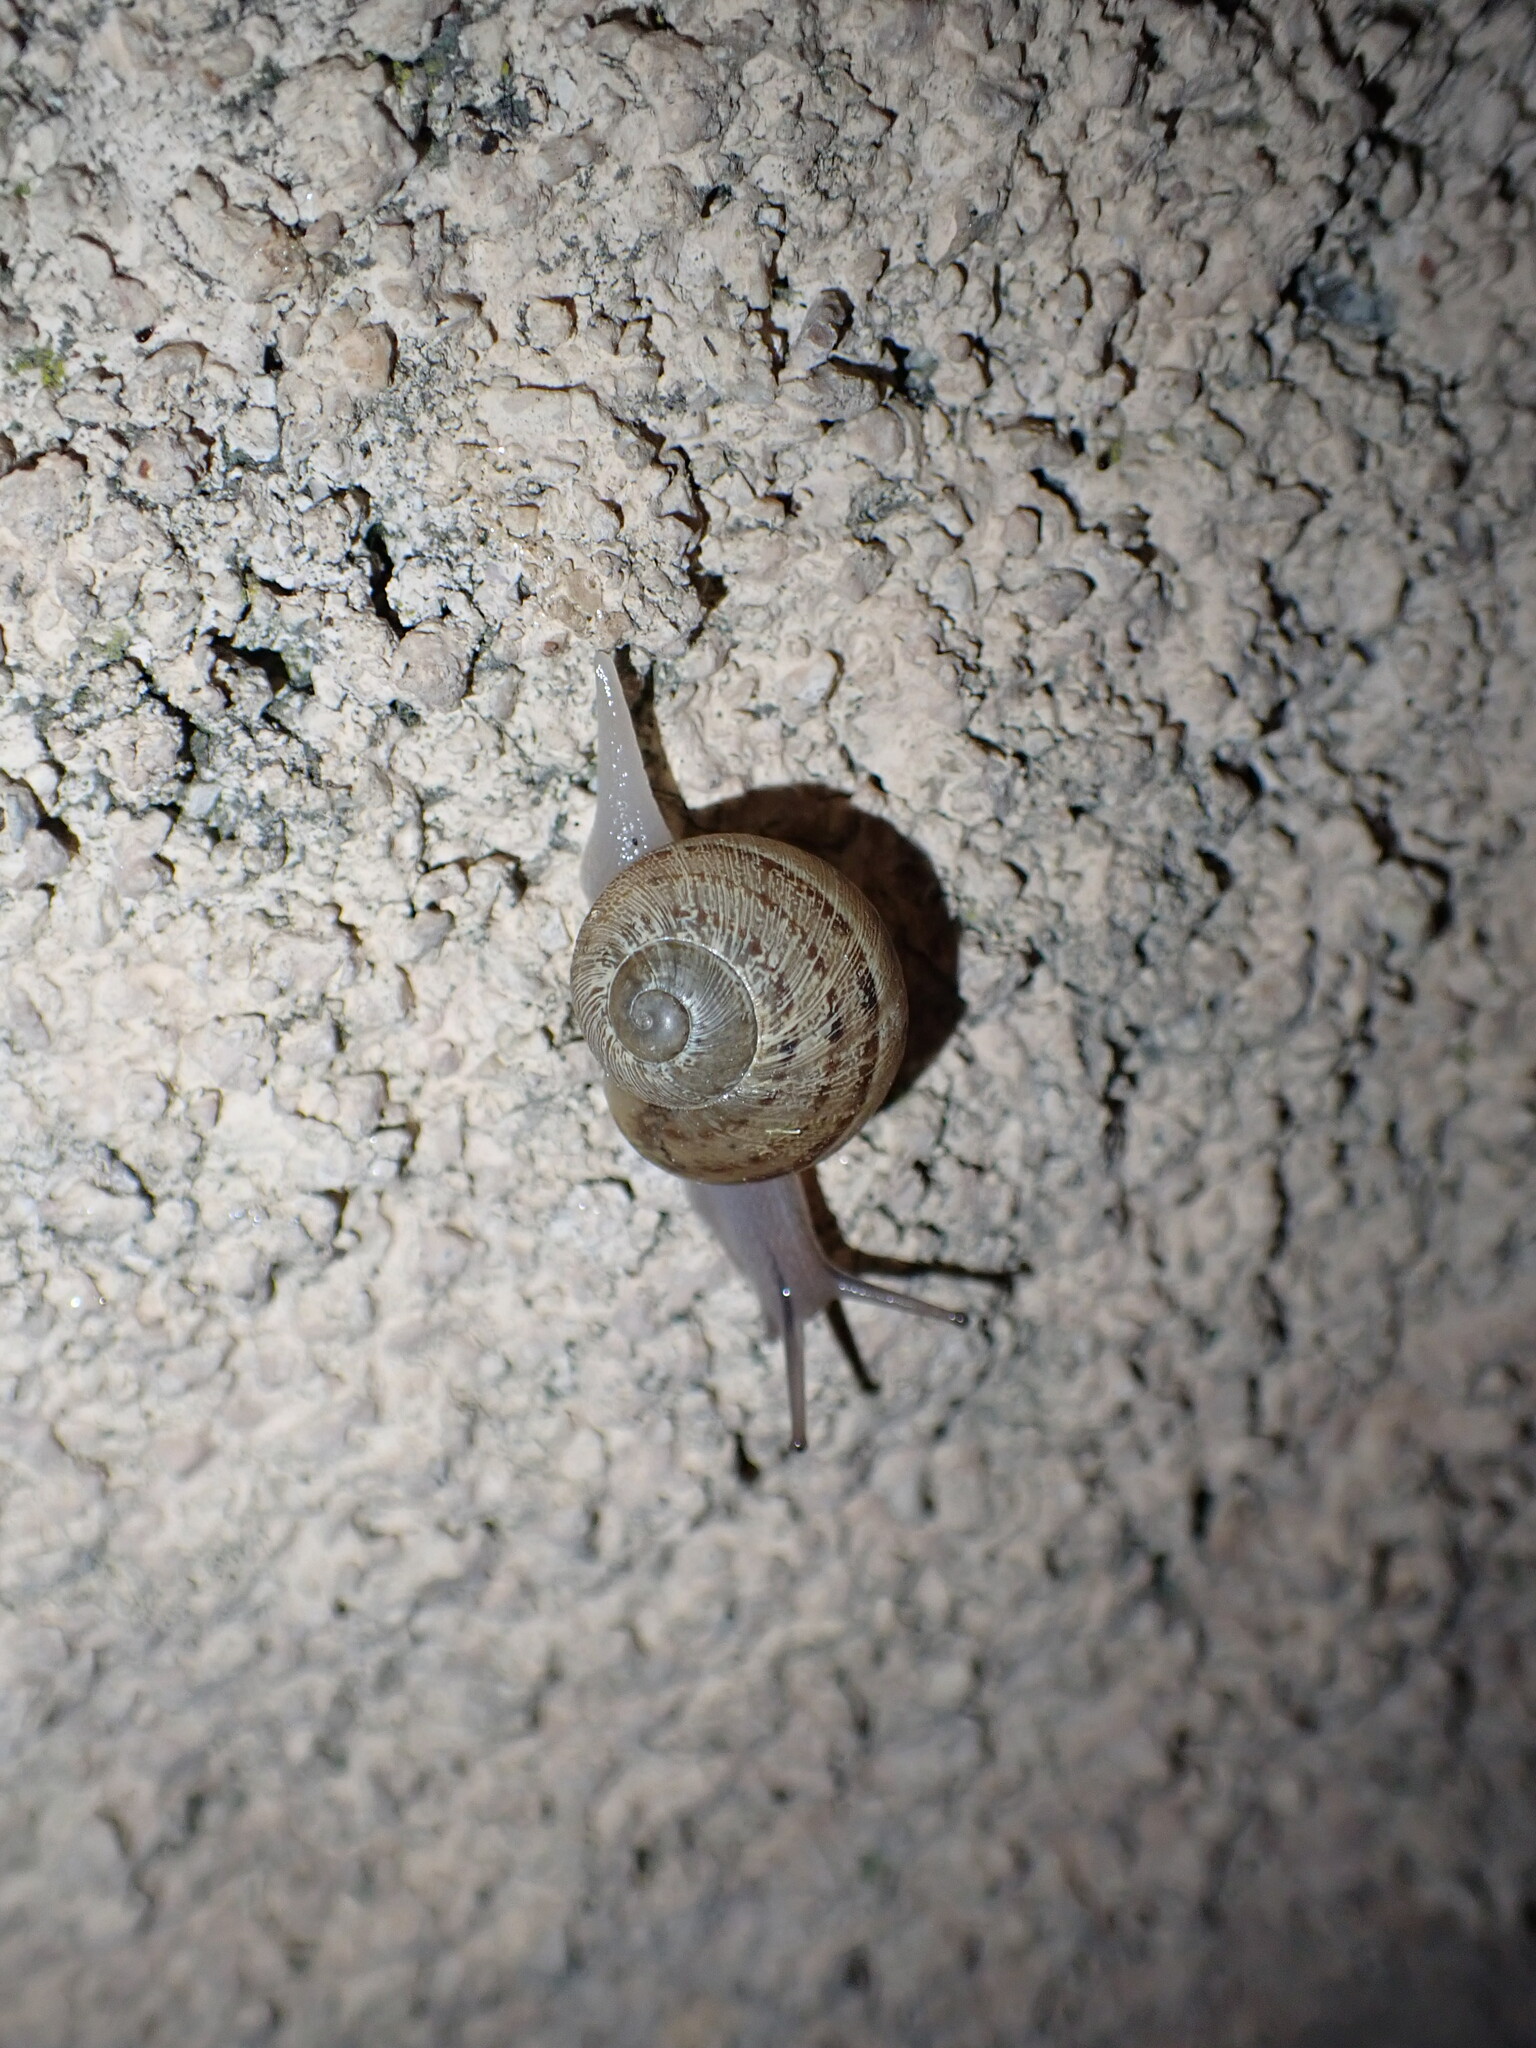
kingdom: Animalia
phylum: Mollusca
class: Gastropoda
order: Stylommatophora
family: Helicidae
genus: Cornu
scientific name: Cornu aspersum
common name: Brown garden snail
